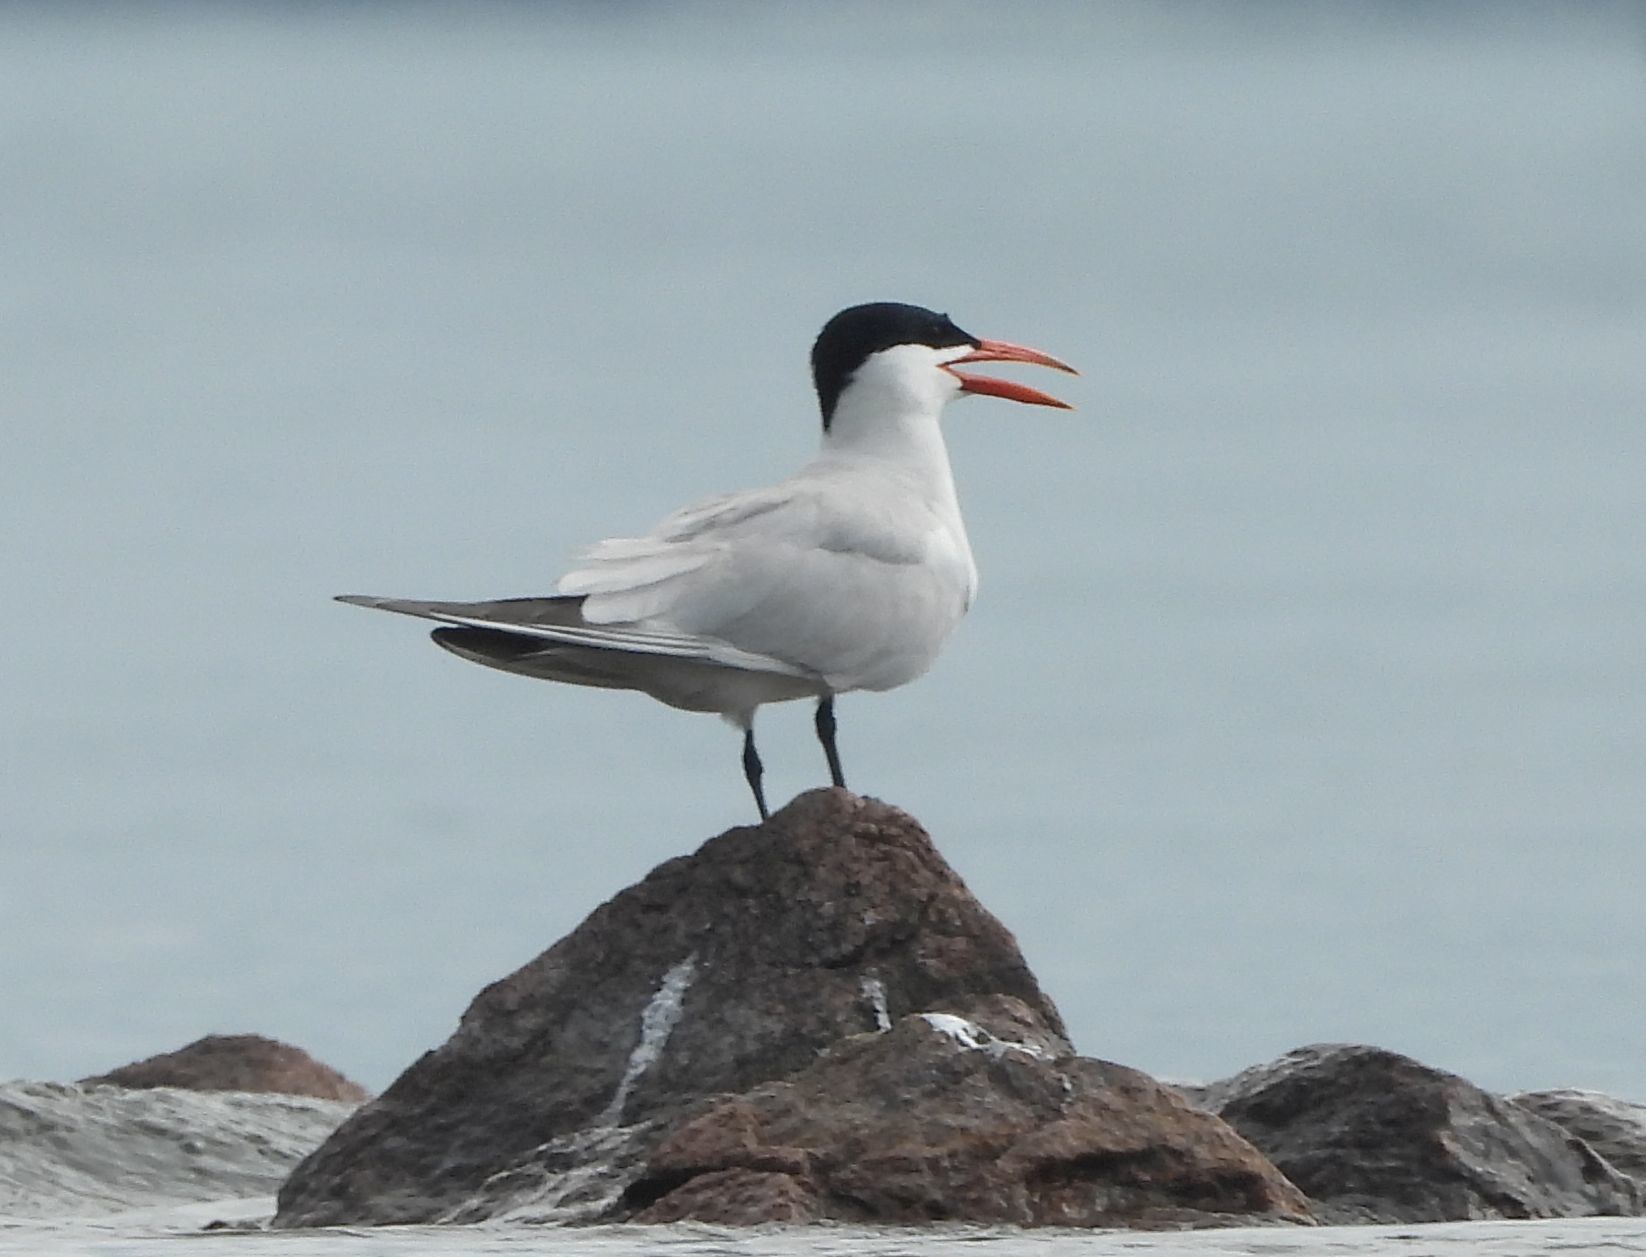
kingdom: Animalia
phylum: Chordata
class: Aves
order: Charadriiformes
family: Laridae
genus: Hydroprogne
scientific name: Hydroprogne caspia
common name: Caspian tern
